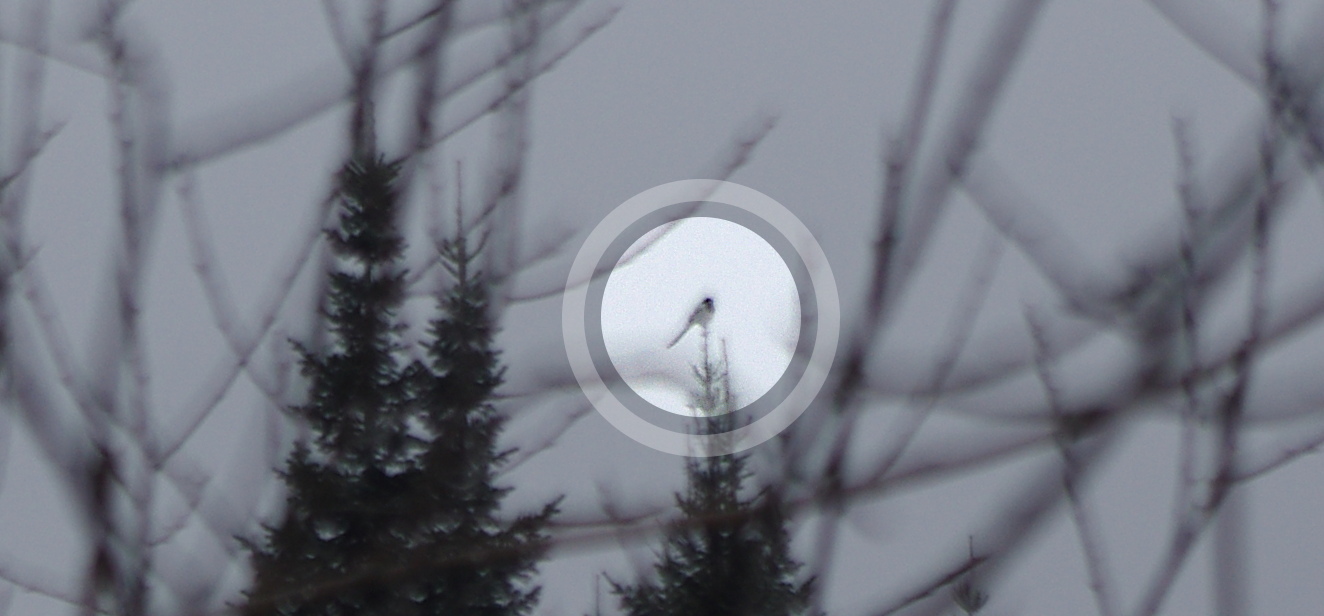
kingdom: Animalia
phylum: Chordata
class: Aves
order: Passeriformes
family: Corvidae
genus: Pica
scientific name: Pica pica
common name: Eurasian magpie
